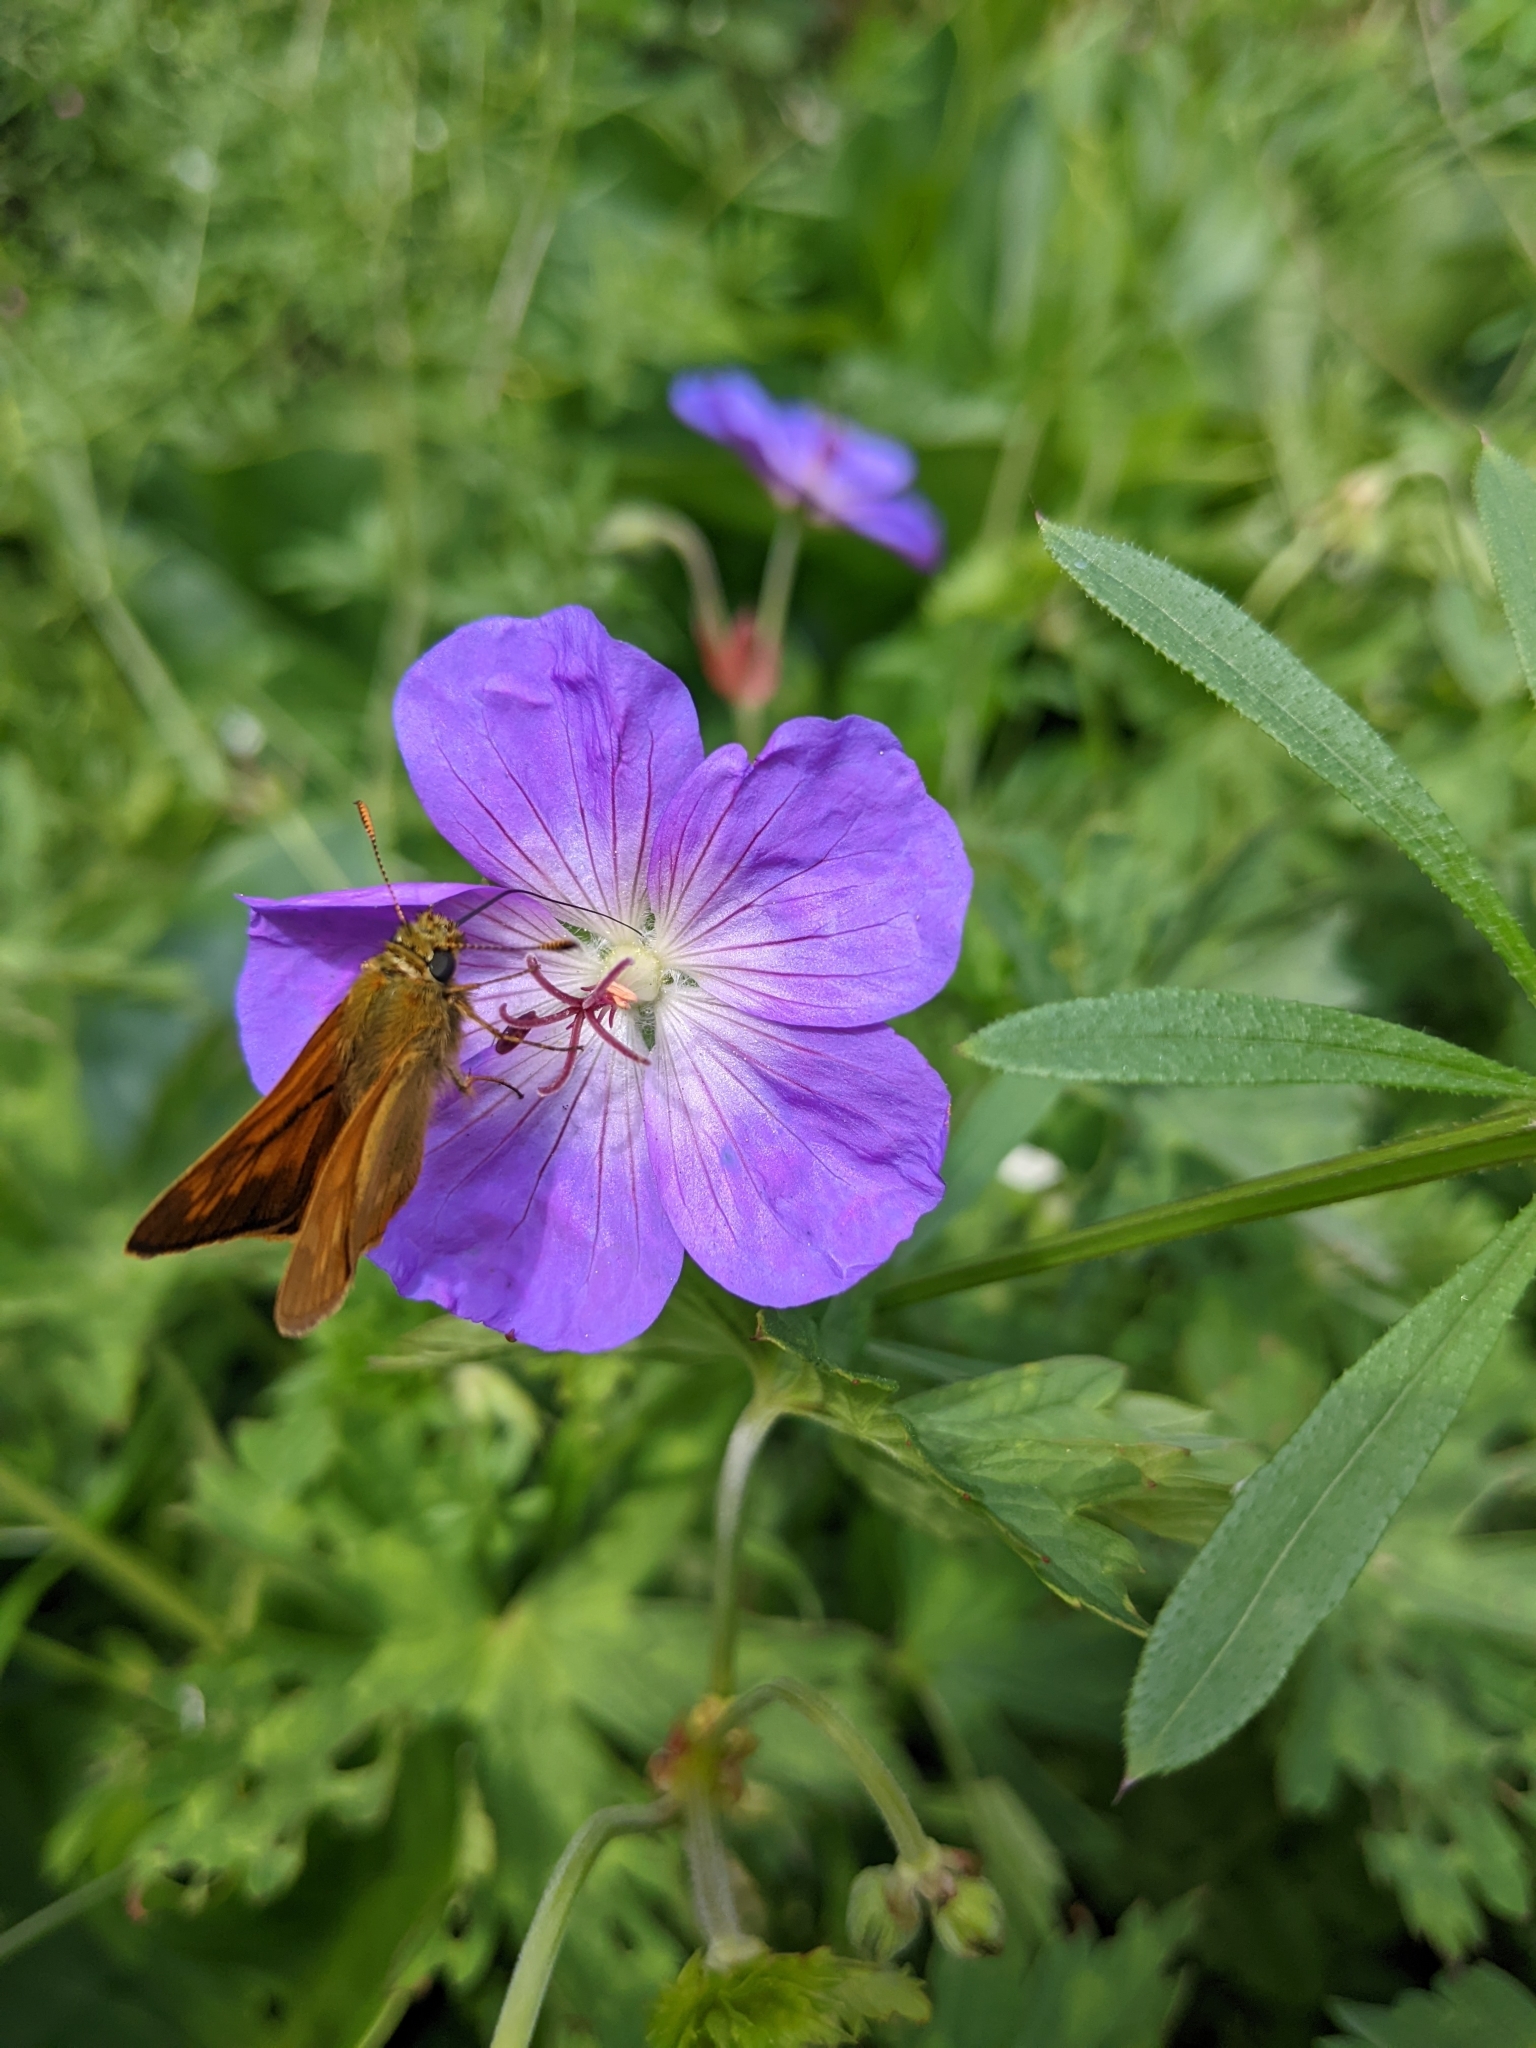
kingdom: Animalia
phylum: Arthropoda
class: Insecta
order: Lepidoptera
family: Hesperiidae
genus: Ochlodes
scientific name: Ochlodes venata
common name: Large skipper
